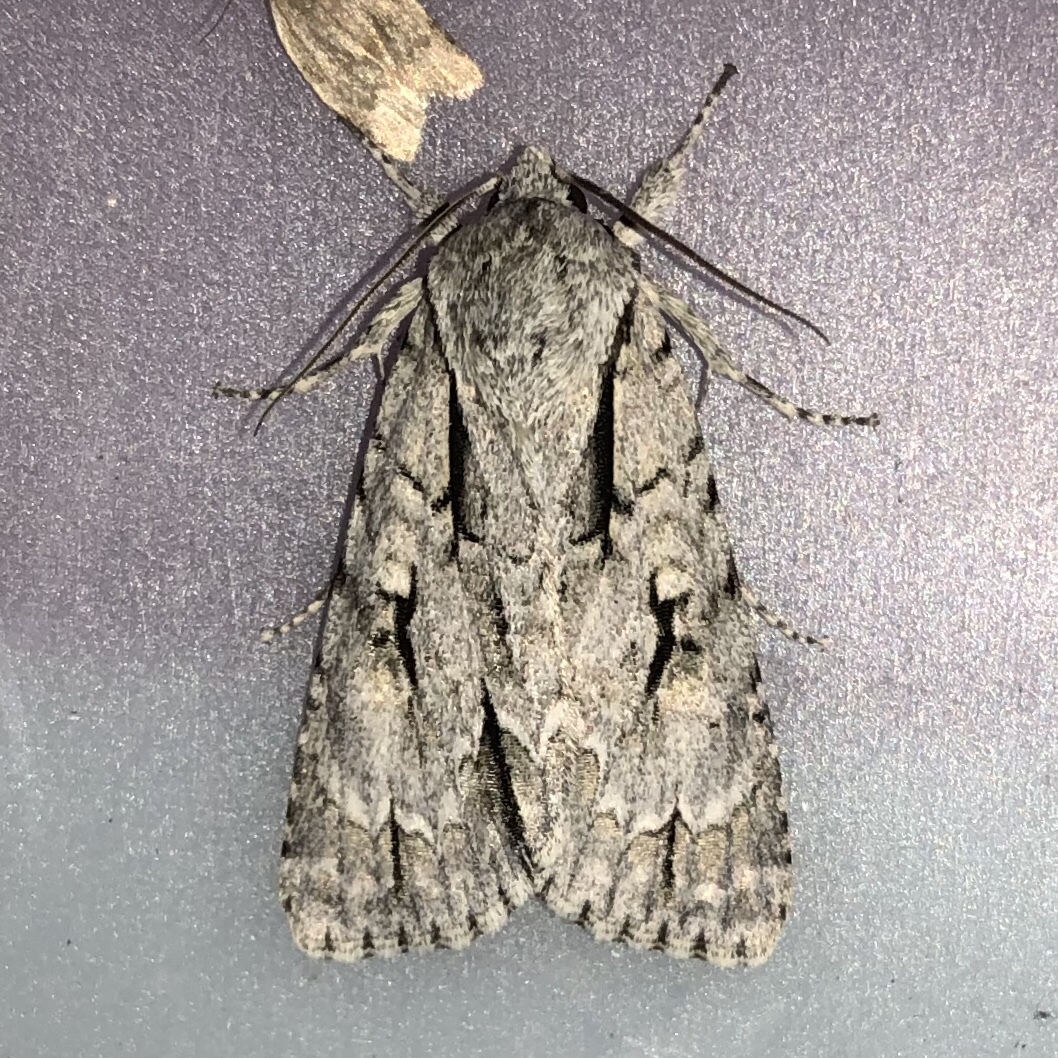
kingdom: Animalia
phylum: Arthropoda
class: Insecta
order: Lepidoptera
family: Noctuidae
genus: Acronicta
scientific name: Acronicta hasta
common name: Cherry dagger
